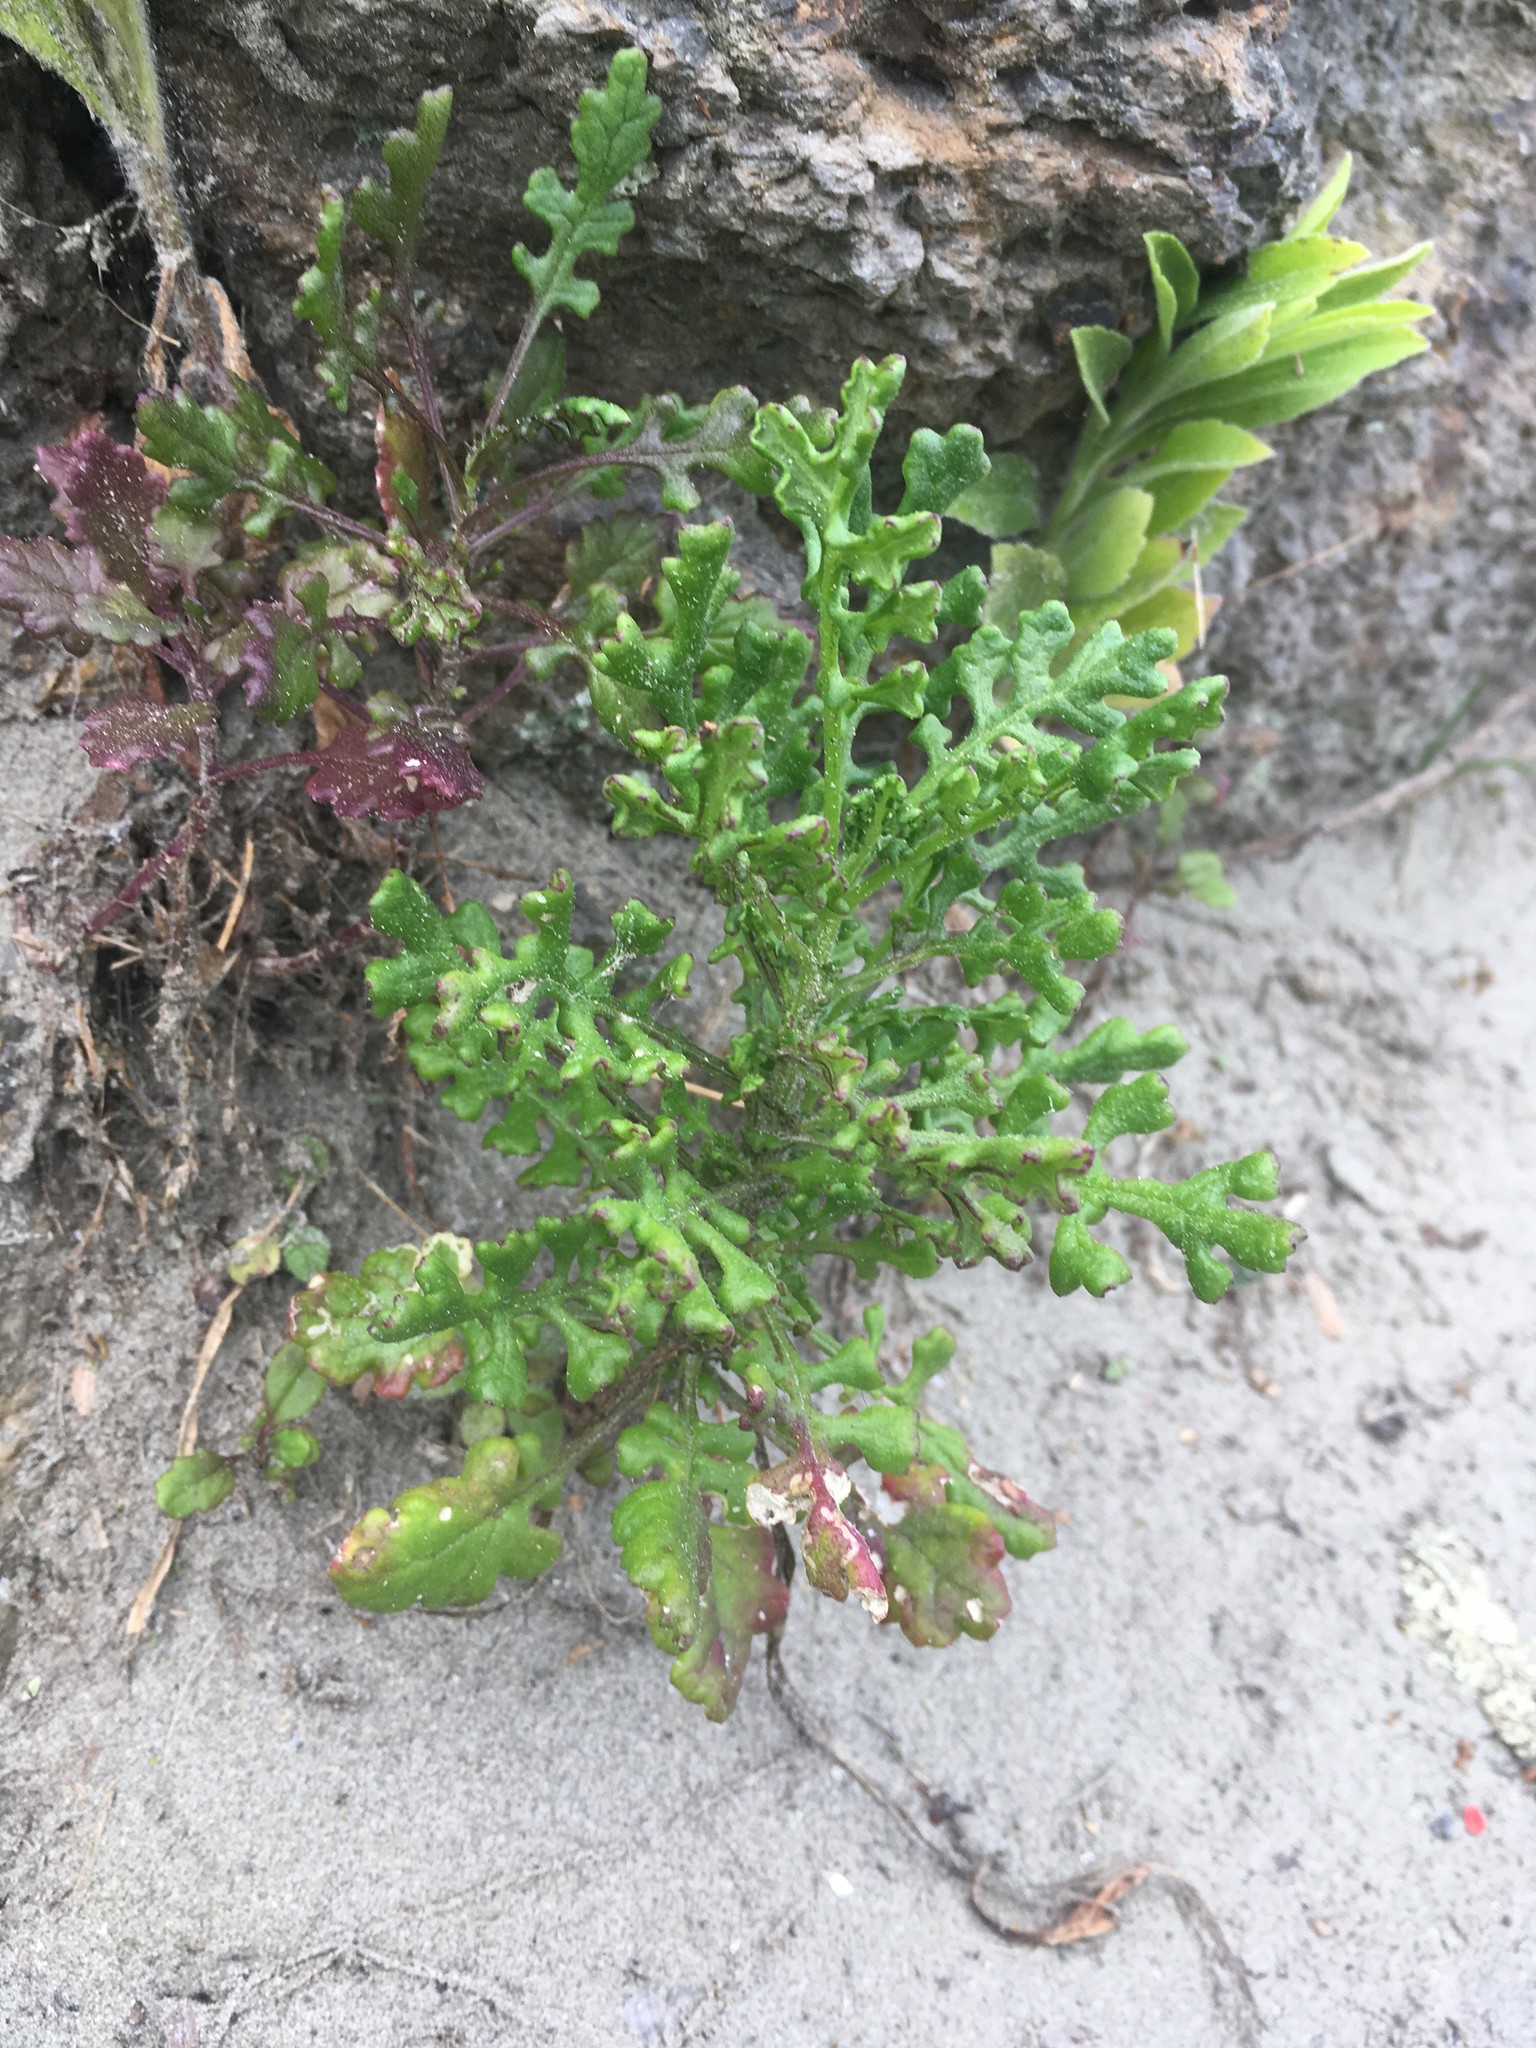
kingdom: Plantae
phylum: Tracheophyta
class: Magnoliopsida
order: Asterales
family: Asteraceae
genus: Senecio
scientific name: Senecio elegans
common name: Purple groundsel
